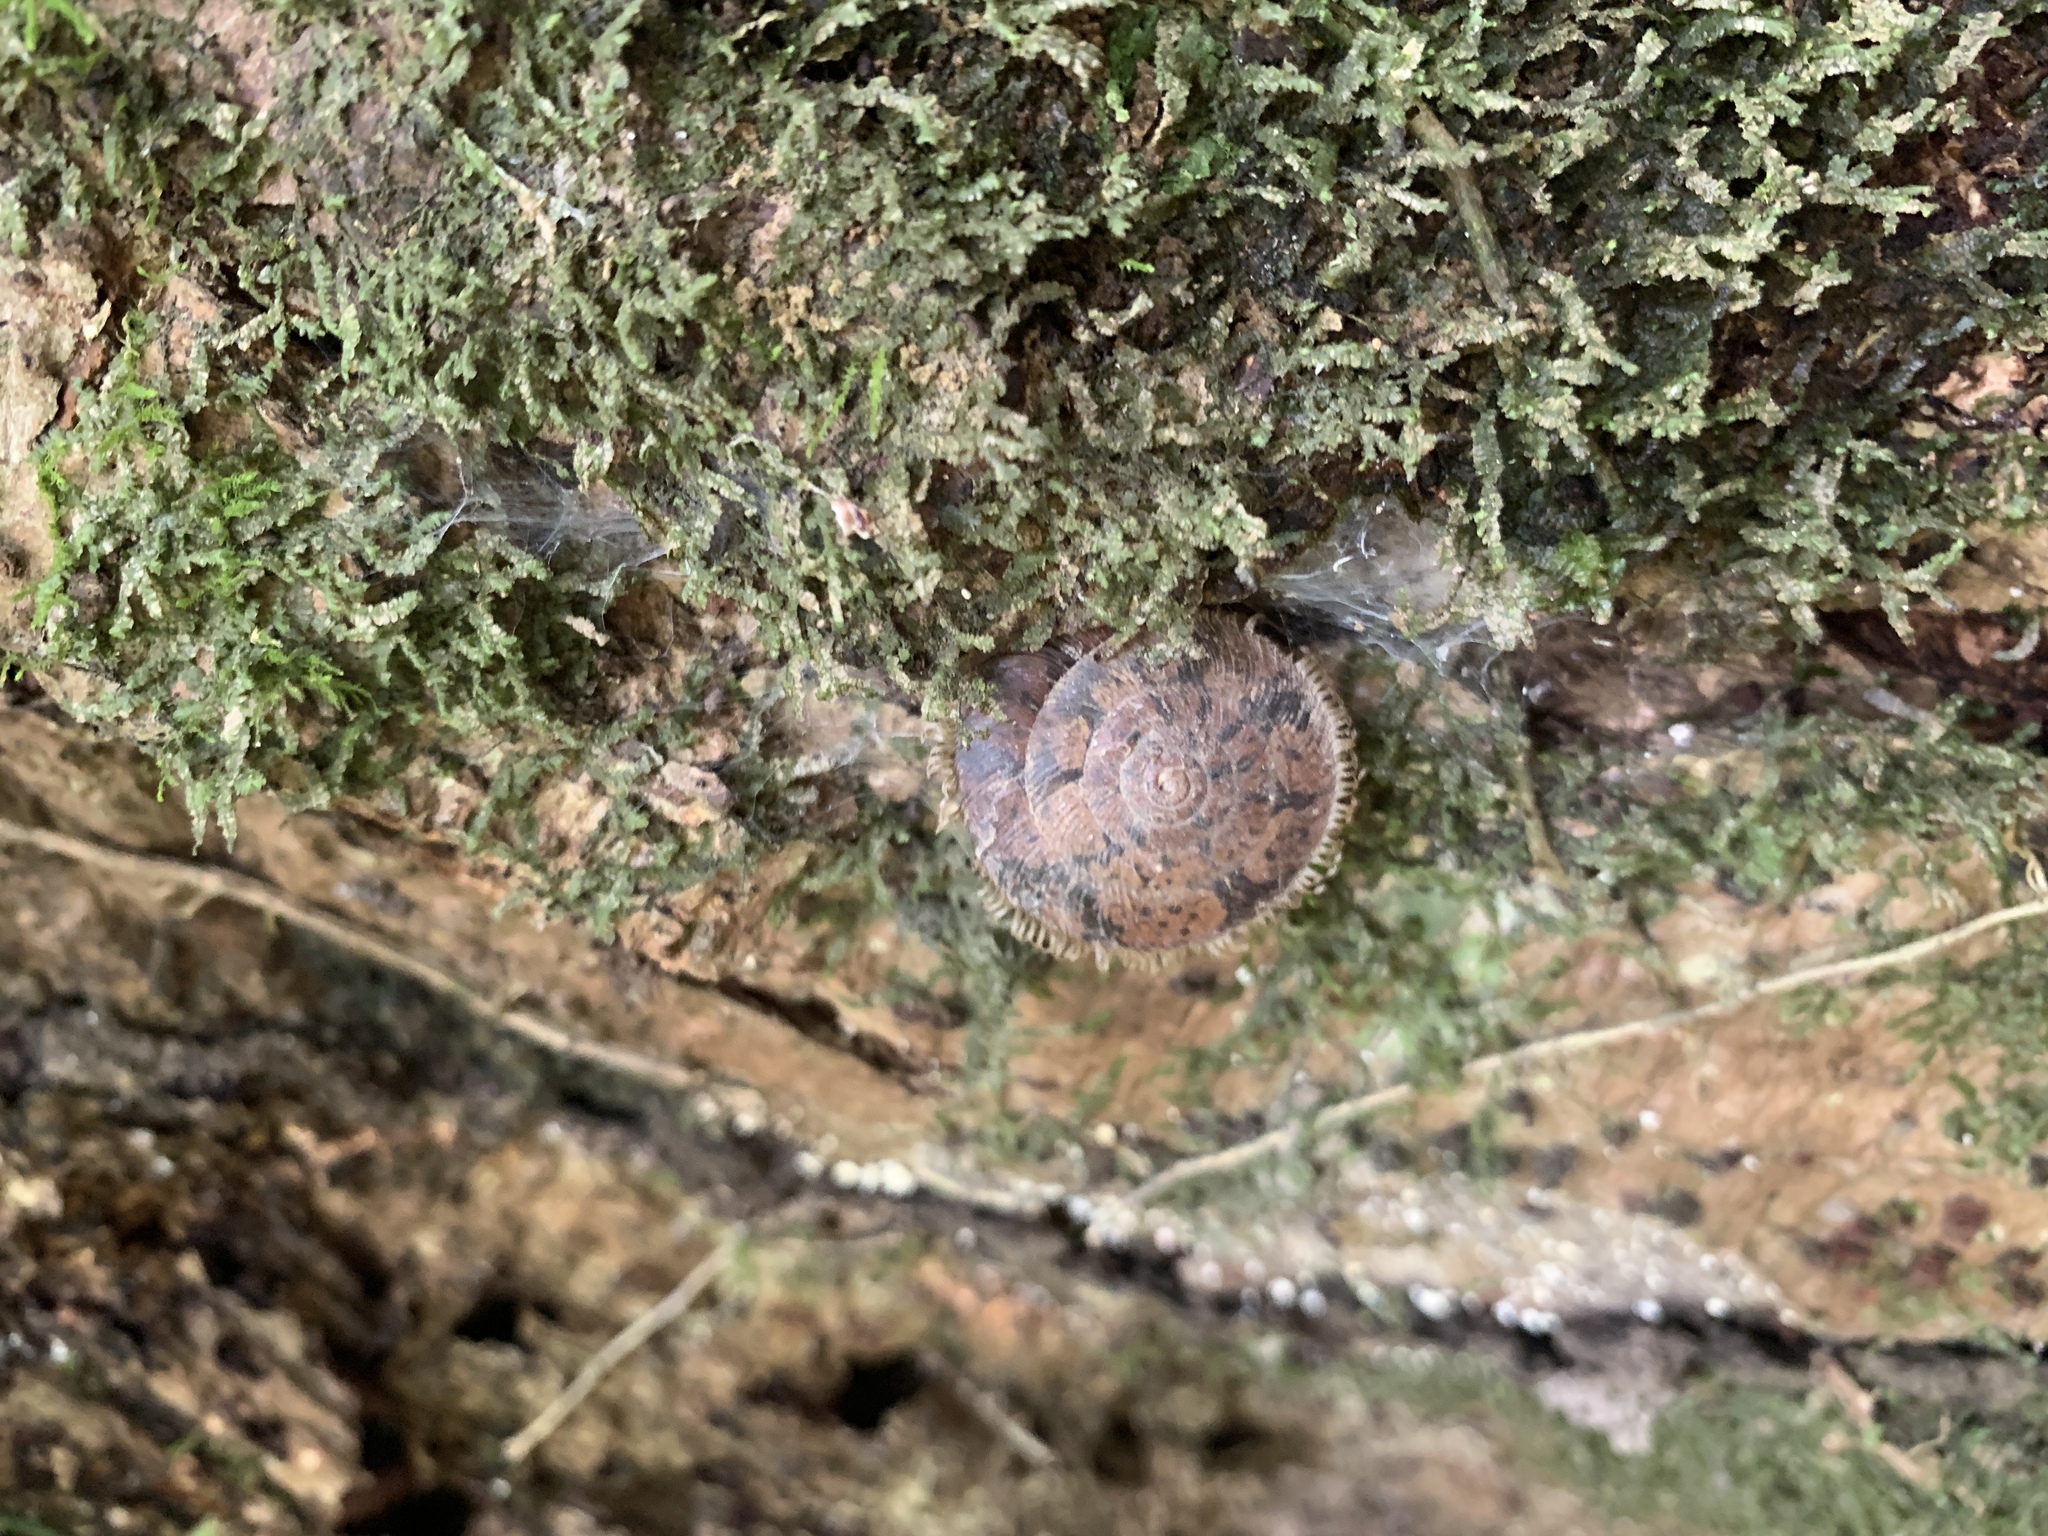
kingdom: Animalia
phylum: Mollusca
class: Gastropoda
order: Stylommatophora
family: Camaenidae
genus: Plectotropis
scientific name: Plectotropis mackensii
